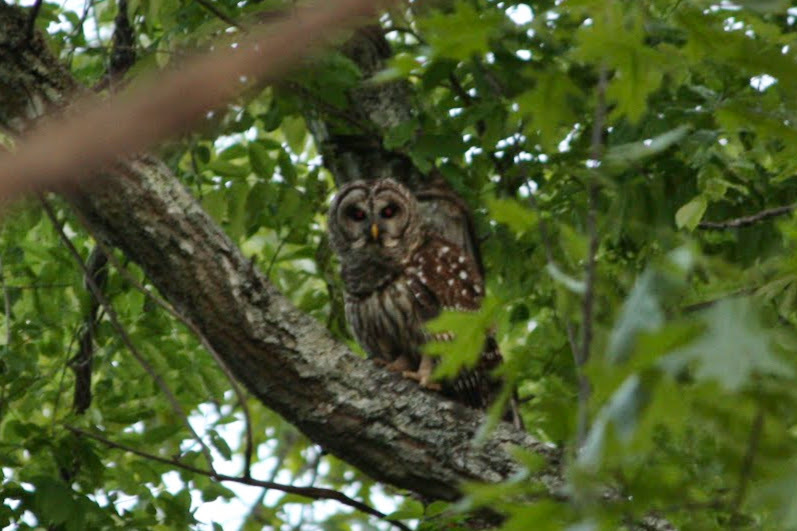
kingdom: Animalia
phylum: Chordata
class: Aves
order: Strigiformes
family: Strigidae
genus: Strix
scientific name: Strix varia
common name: Barred owl
